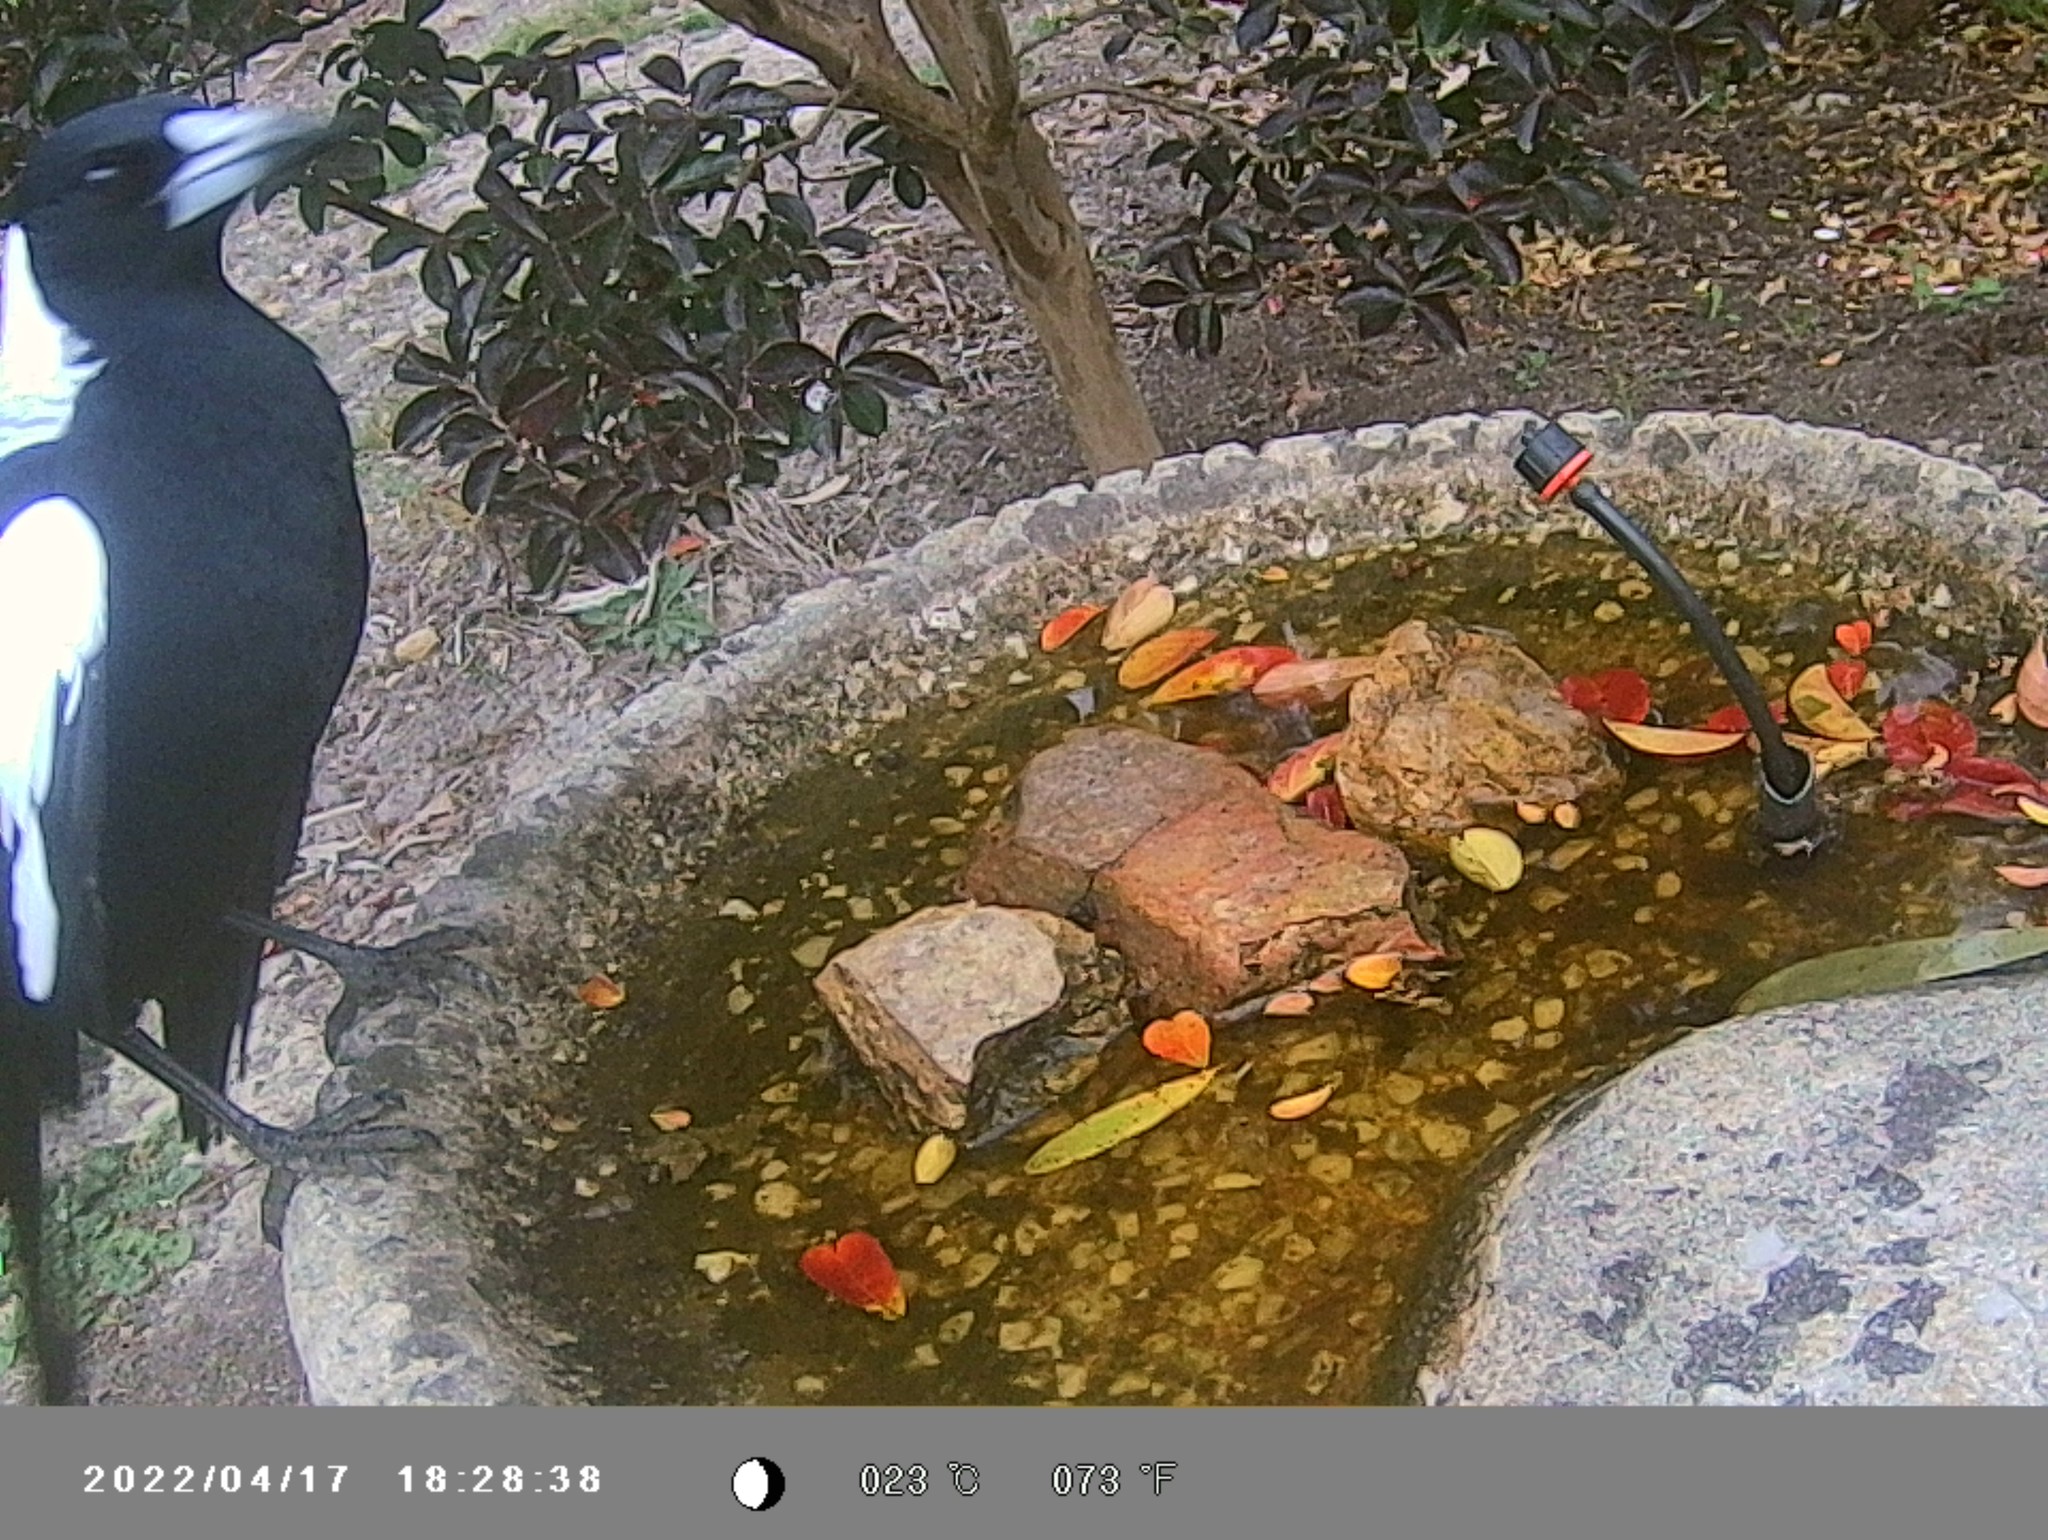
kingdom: Animalia
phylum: Chordata
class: Aves
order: Passeriformes
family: Cracticidae
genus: Gymnorhina
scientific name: Gymnorhina tibicen
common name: Australian magpie
